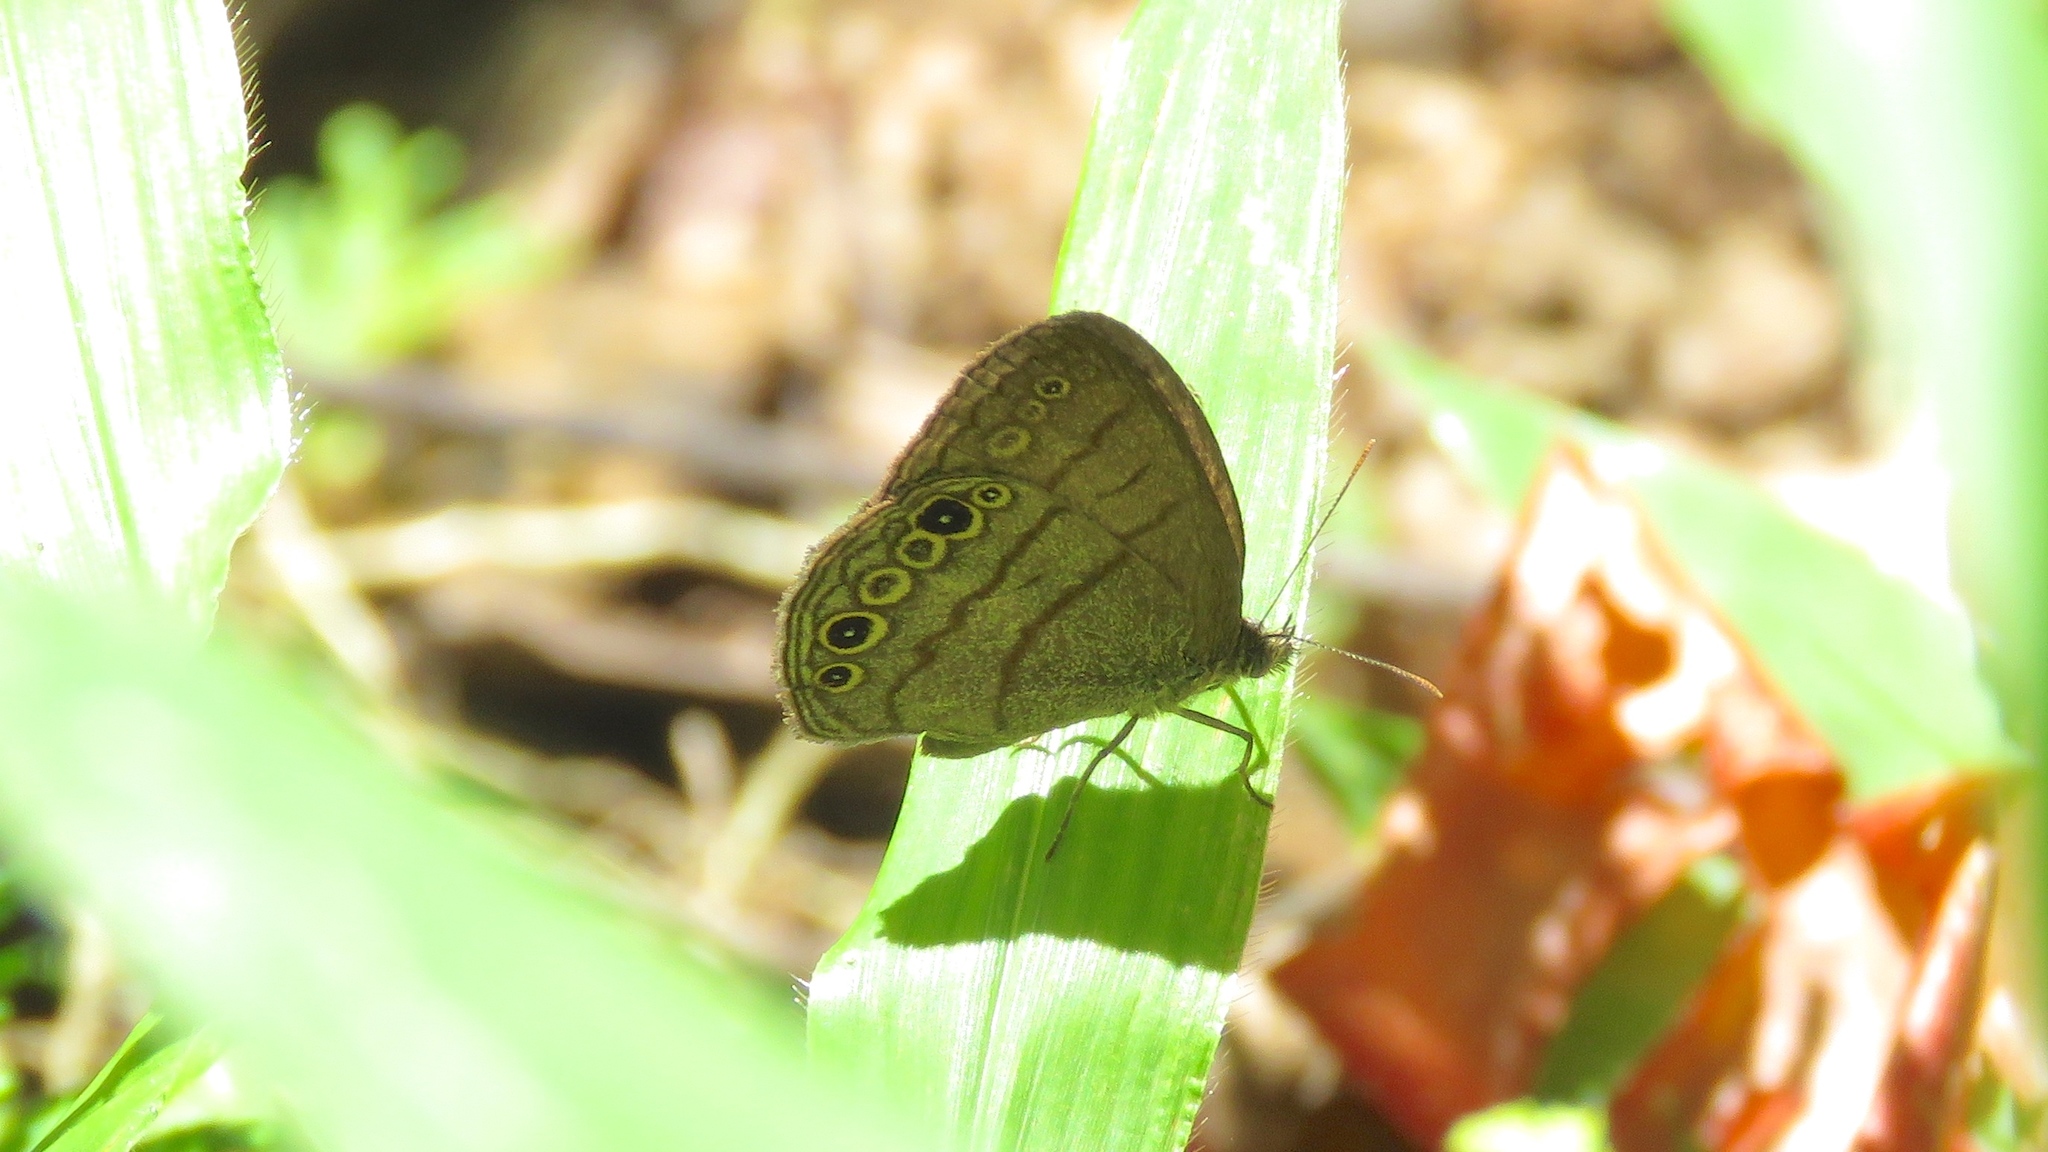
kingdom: Animalia
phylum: Arthropoda
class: Insecta
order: Lepidoptera
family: Nymphalidae
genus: Hermeuptychia
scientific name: Hermeuptychia hermes
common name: Hermes satyr
